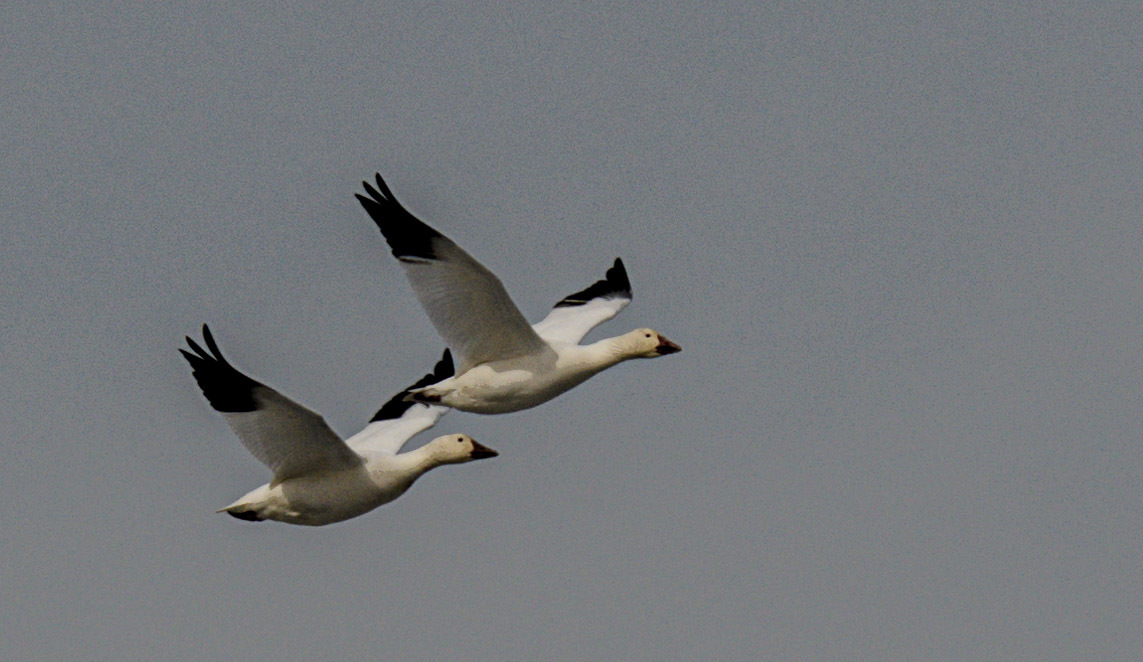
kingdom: Animalia
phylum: Chordata
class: Aves
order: Anseriformes
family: Anatidae
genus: Anser
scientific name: Anser caerulescens
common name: Snow goose
